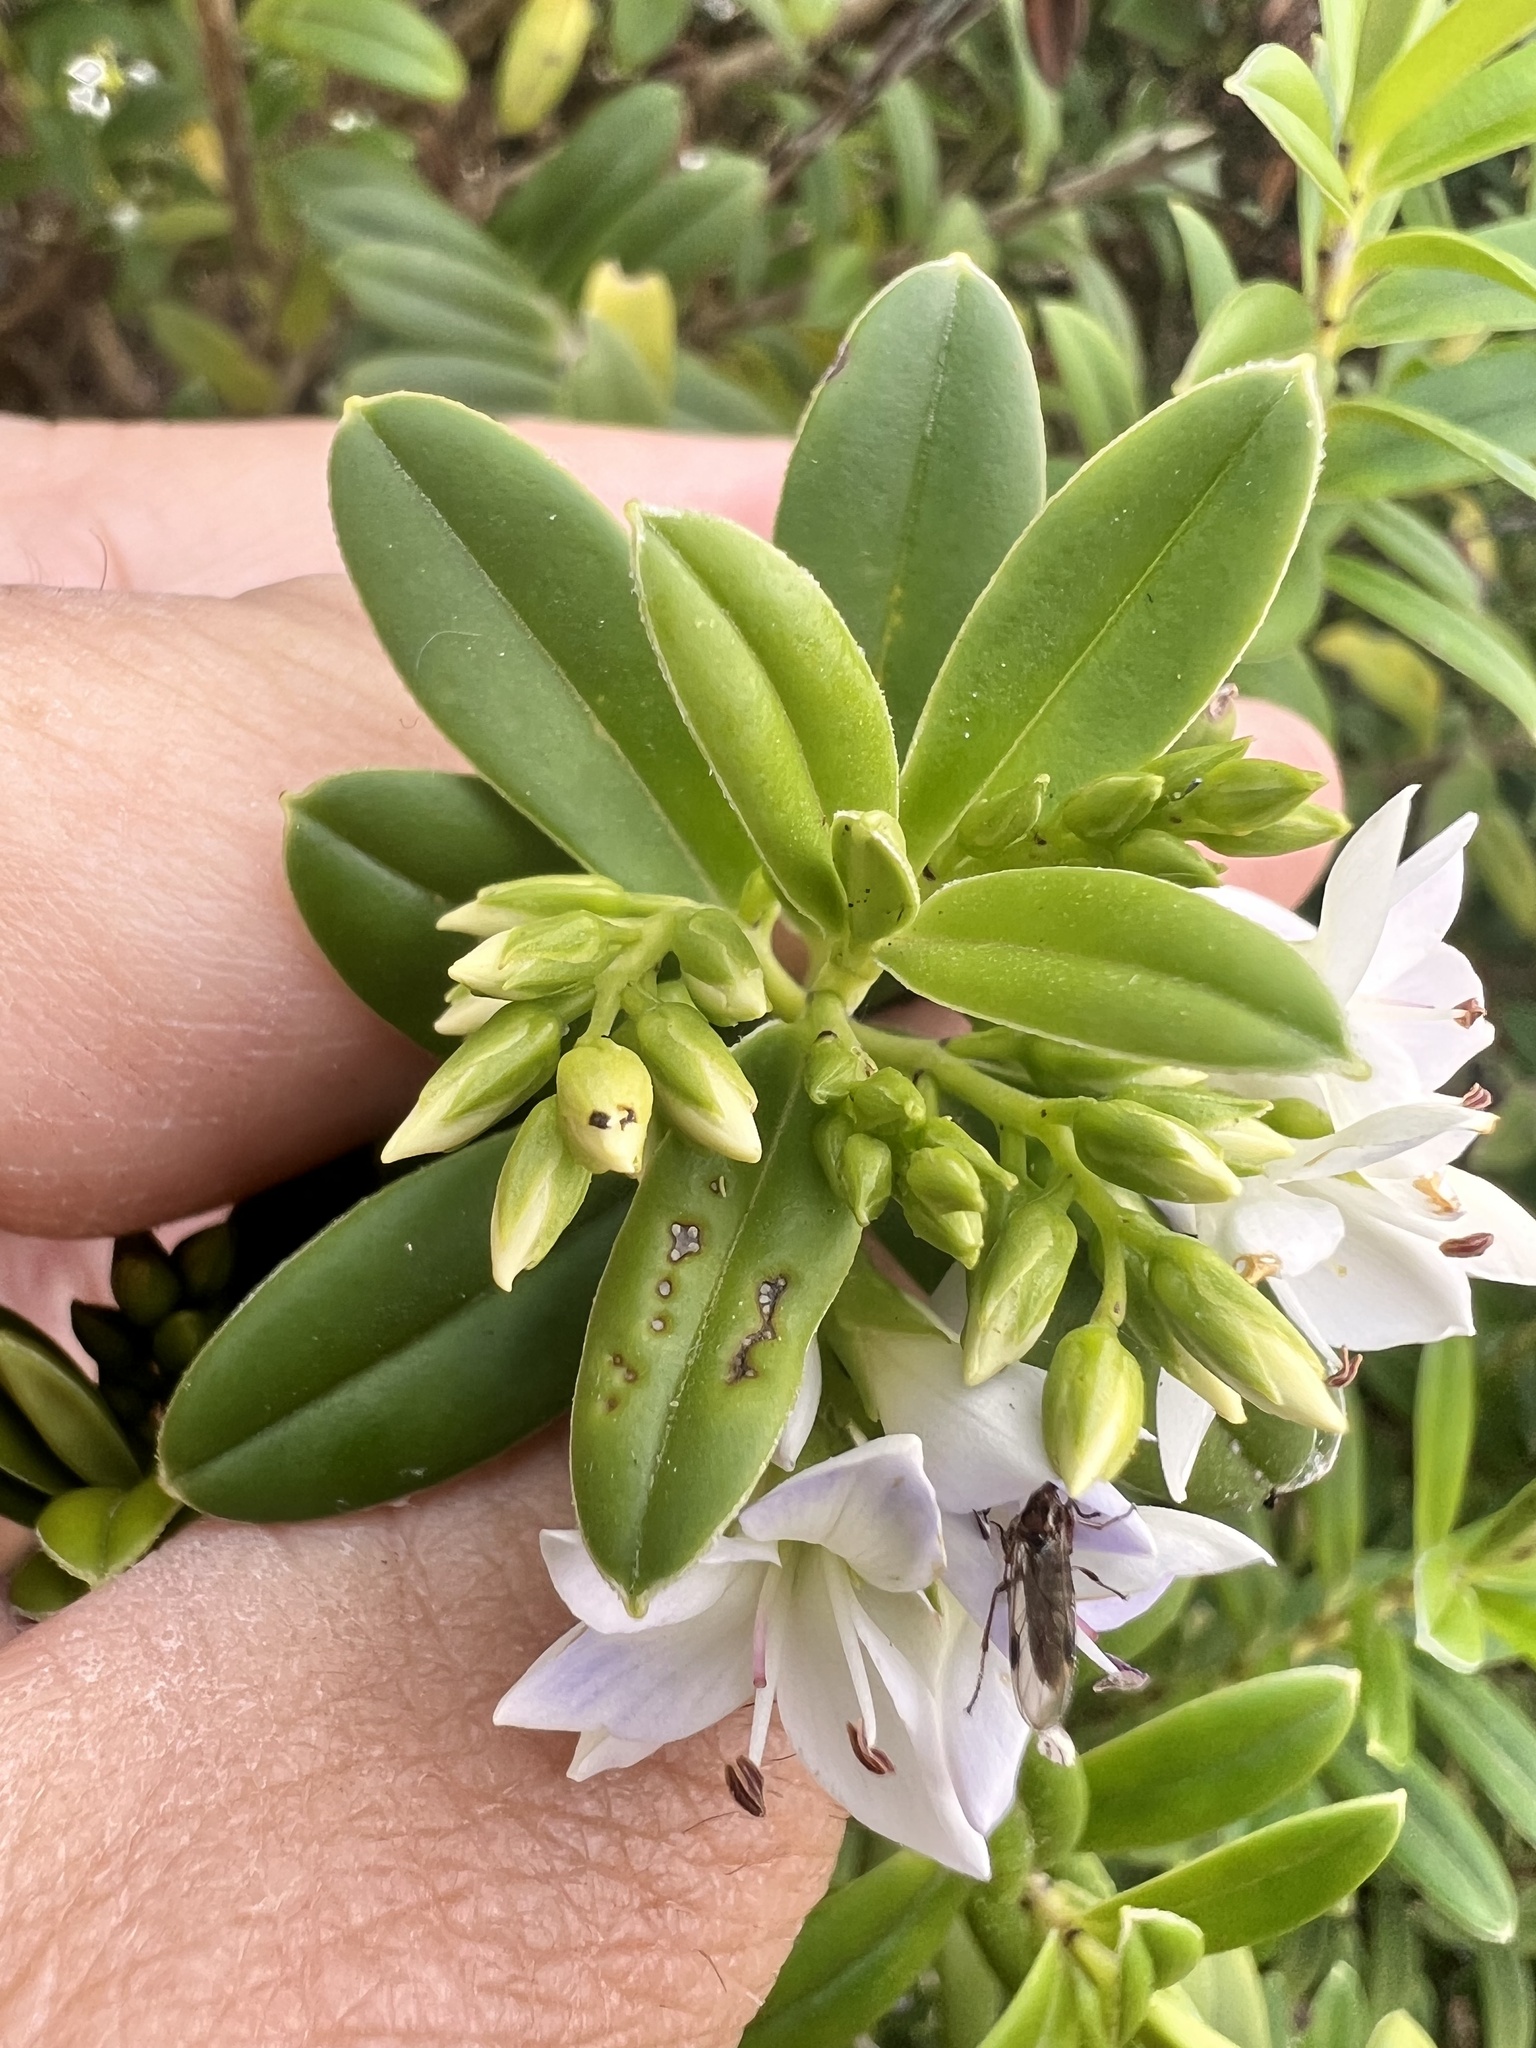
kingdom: Plantae
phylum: Tracheophyta
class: Magnoliopsida
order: Lamiales
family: Plantaginaceae
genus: Veronica
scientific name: Veronica elliptica
